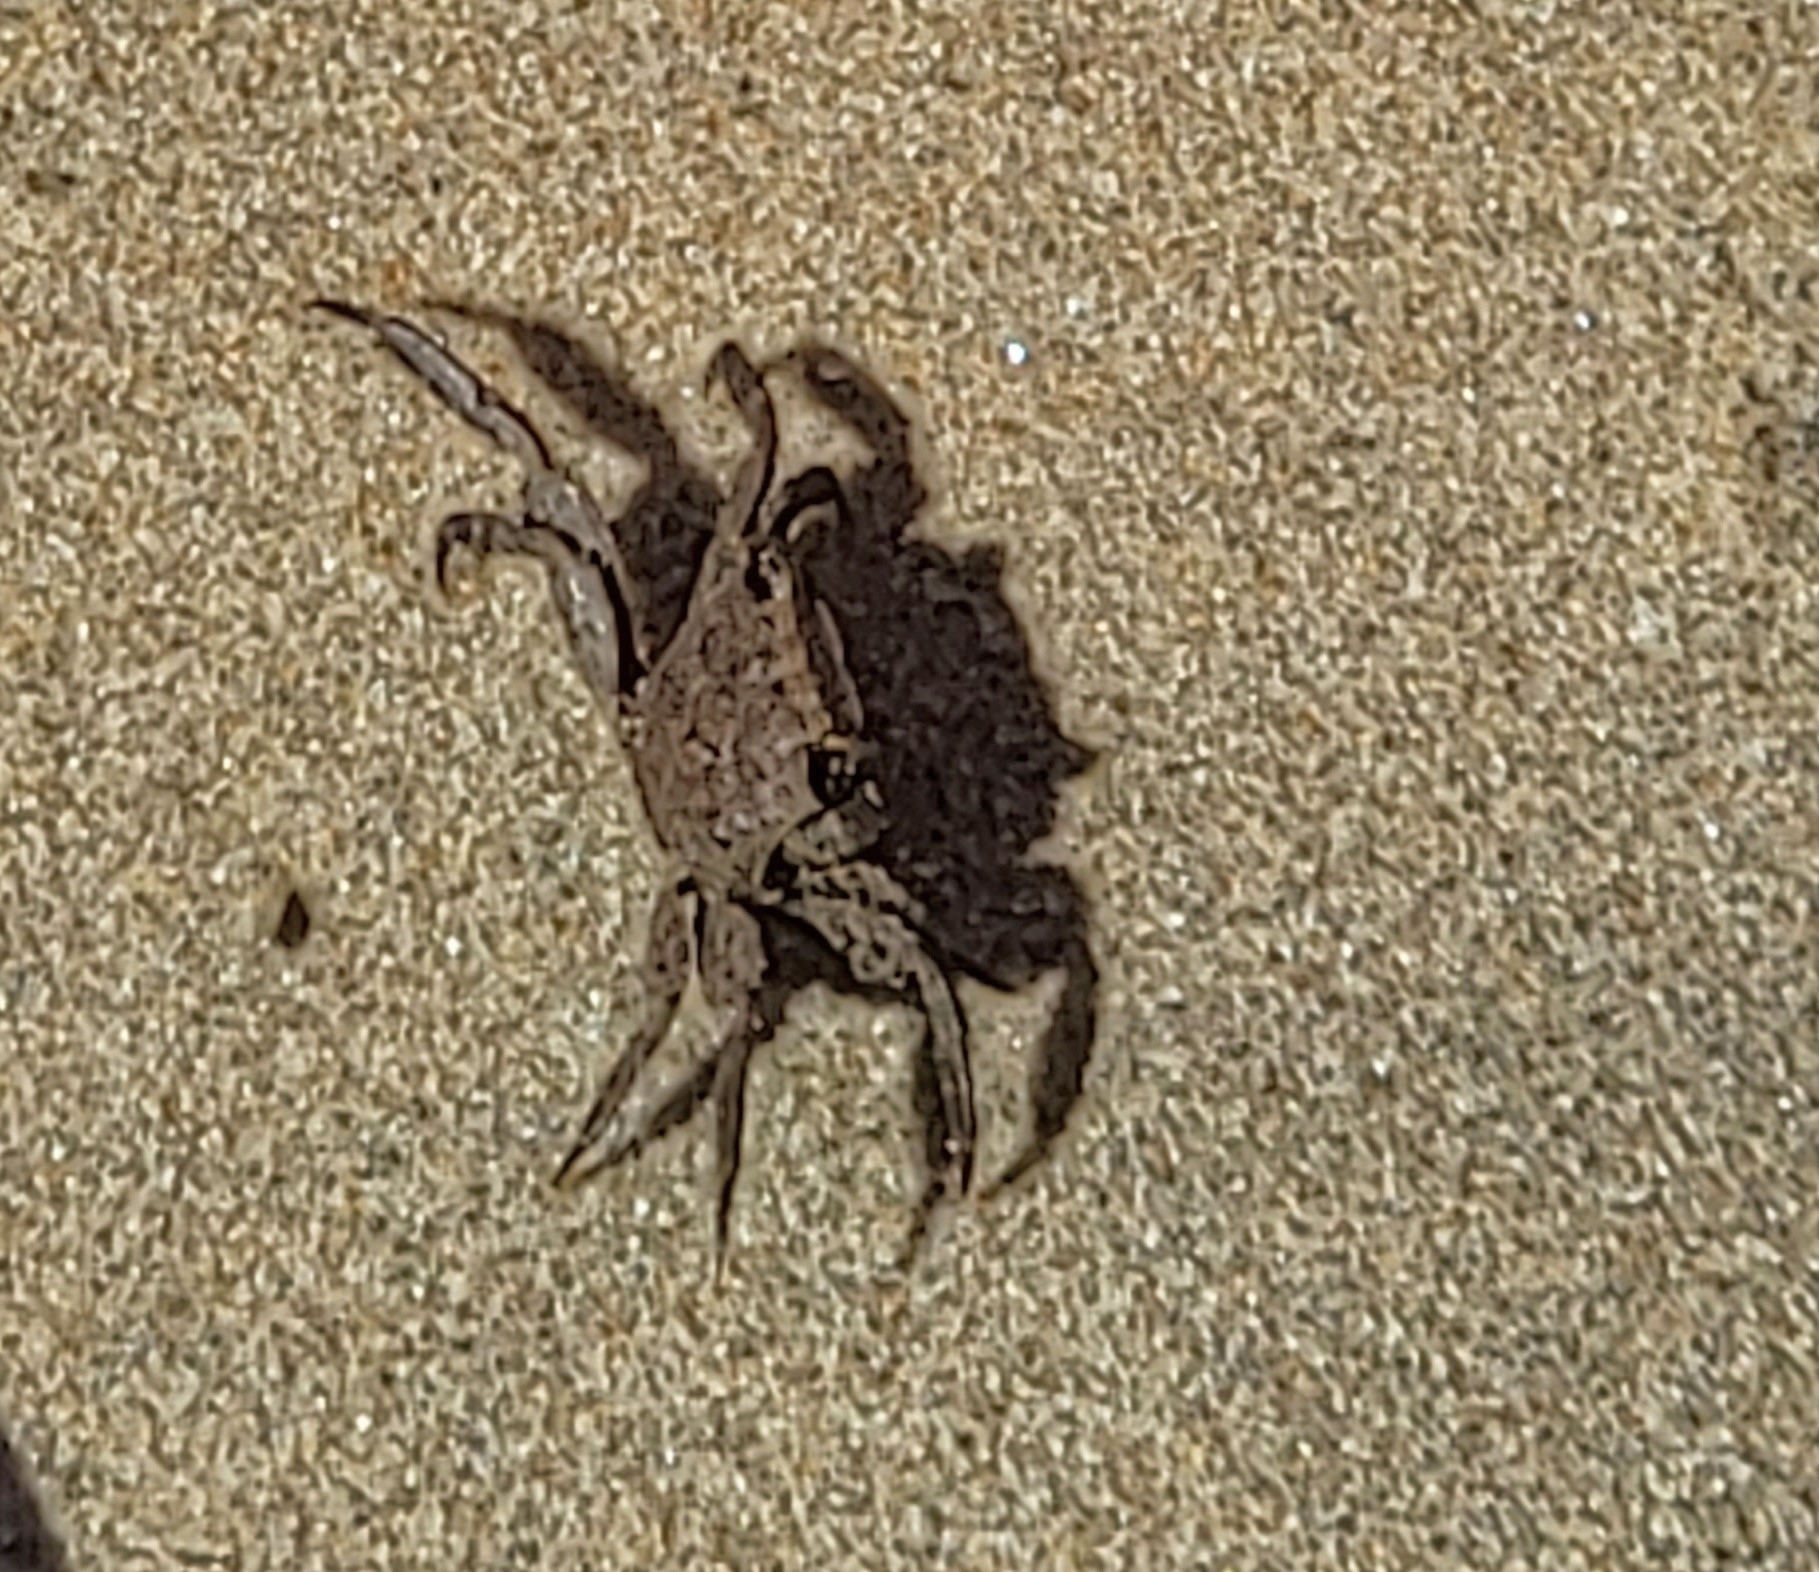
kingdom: Animalia
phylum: Arthropoda
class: Malacostraca
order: Decapoda
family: Sesarmidae
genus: Armases
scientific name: Armases cinereum
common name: Squareback marsh crab
